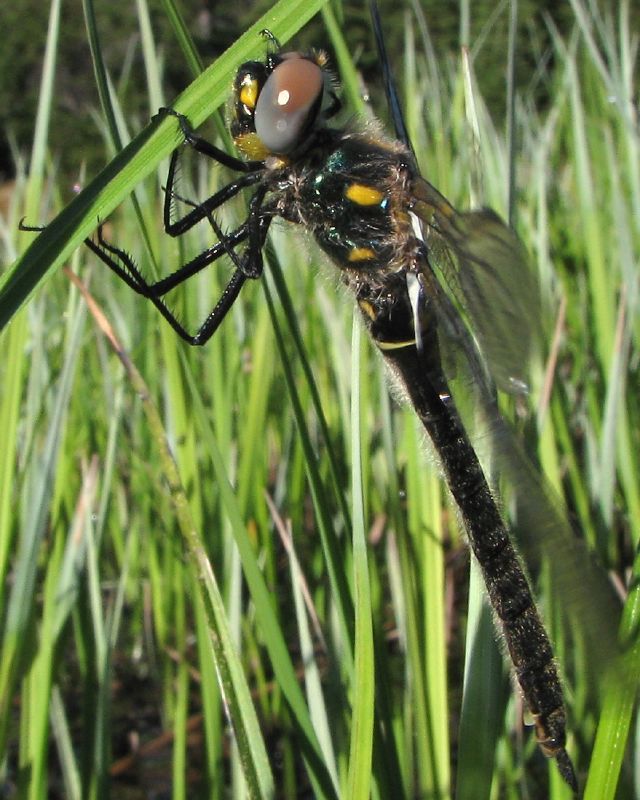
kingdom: Animalia
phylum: Arthropoda
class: Insecta
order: Odonata
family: Corduliidae
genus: Somatochlora
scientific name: Somatochlora semicircularis
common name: Mountain emerald
